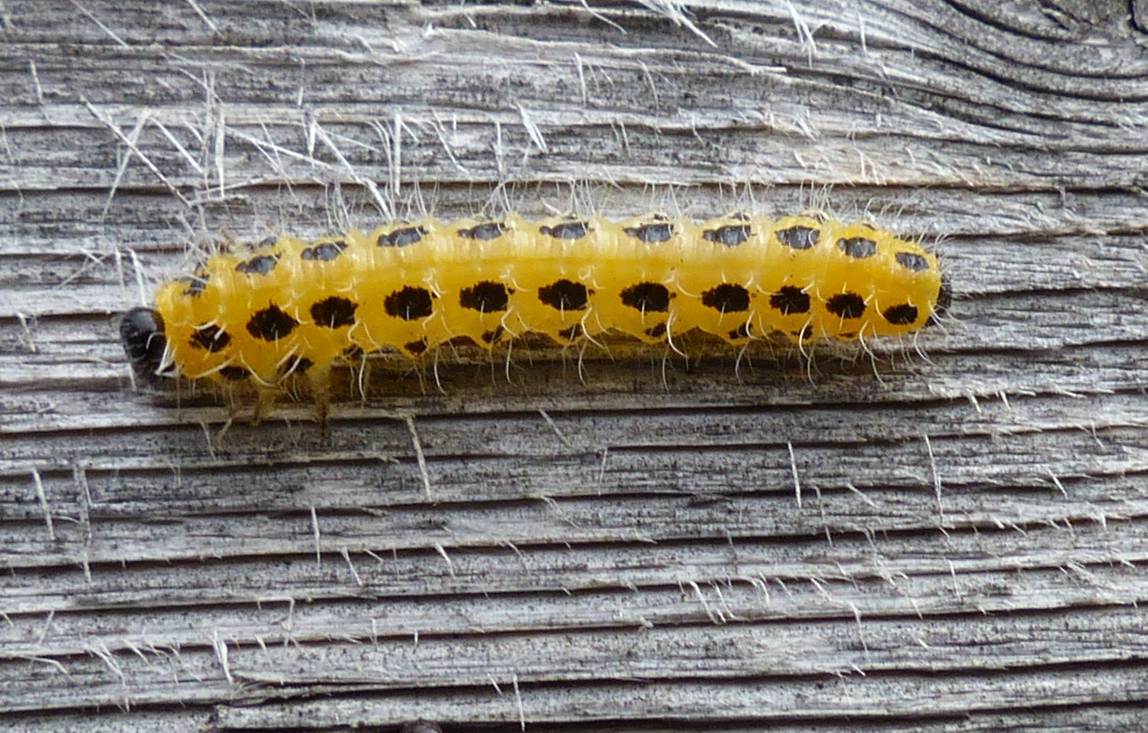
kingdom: Animalia
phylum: Arthropoda
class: Insecta
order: Hymenoptera
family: Tenthredinidae
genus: Cladius
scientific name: Cladius grandis
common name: Common sawfly
